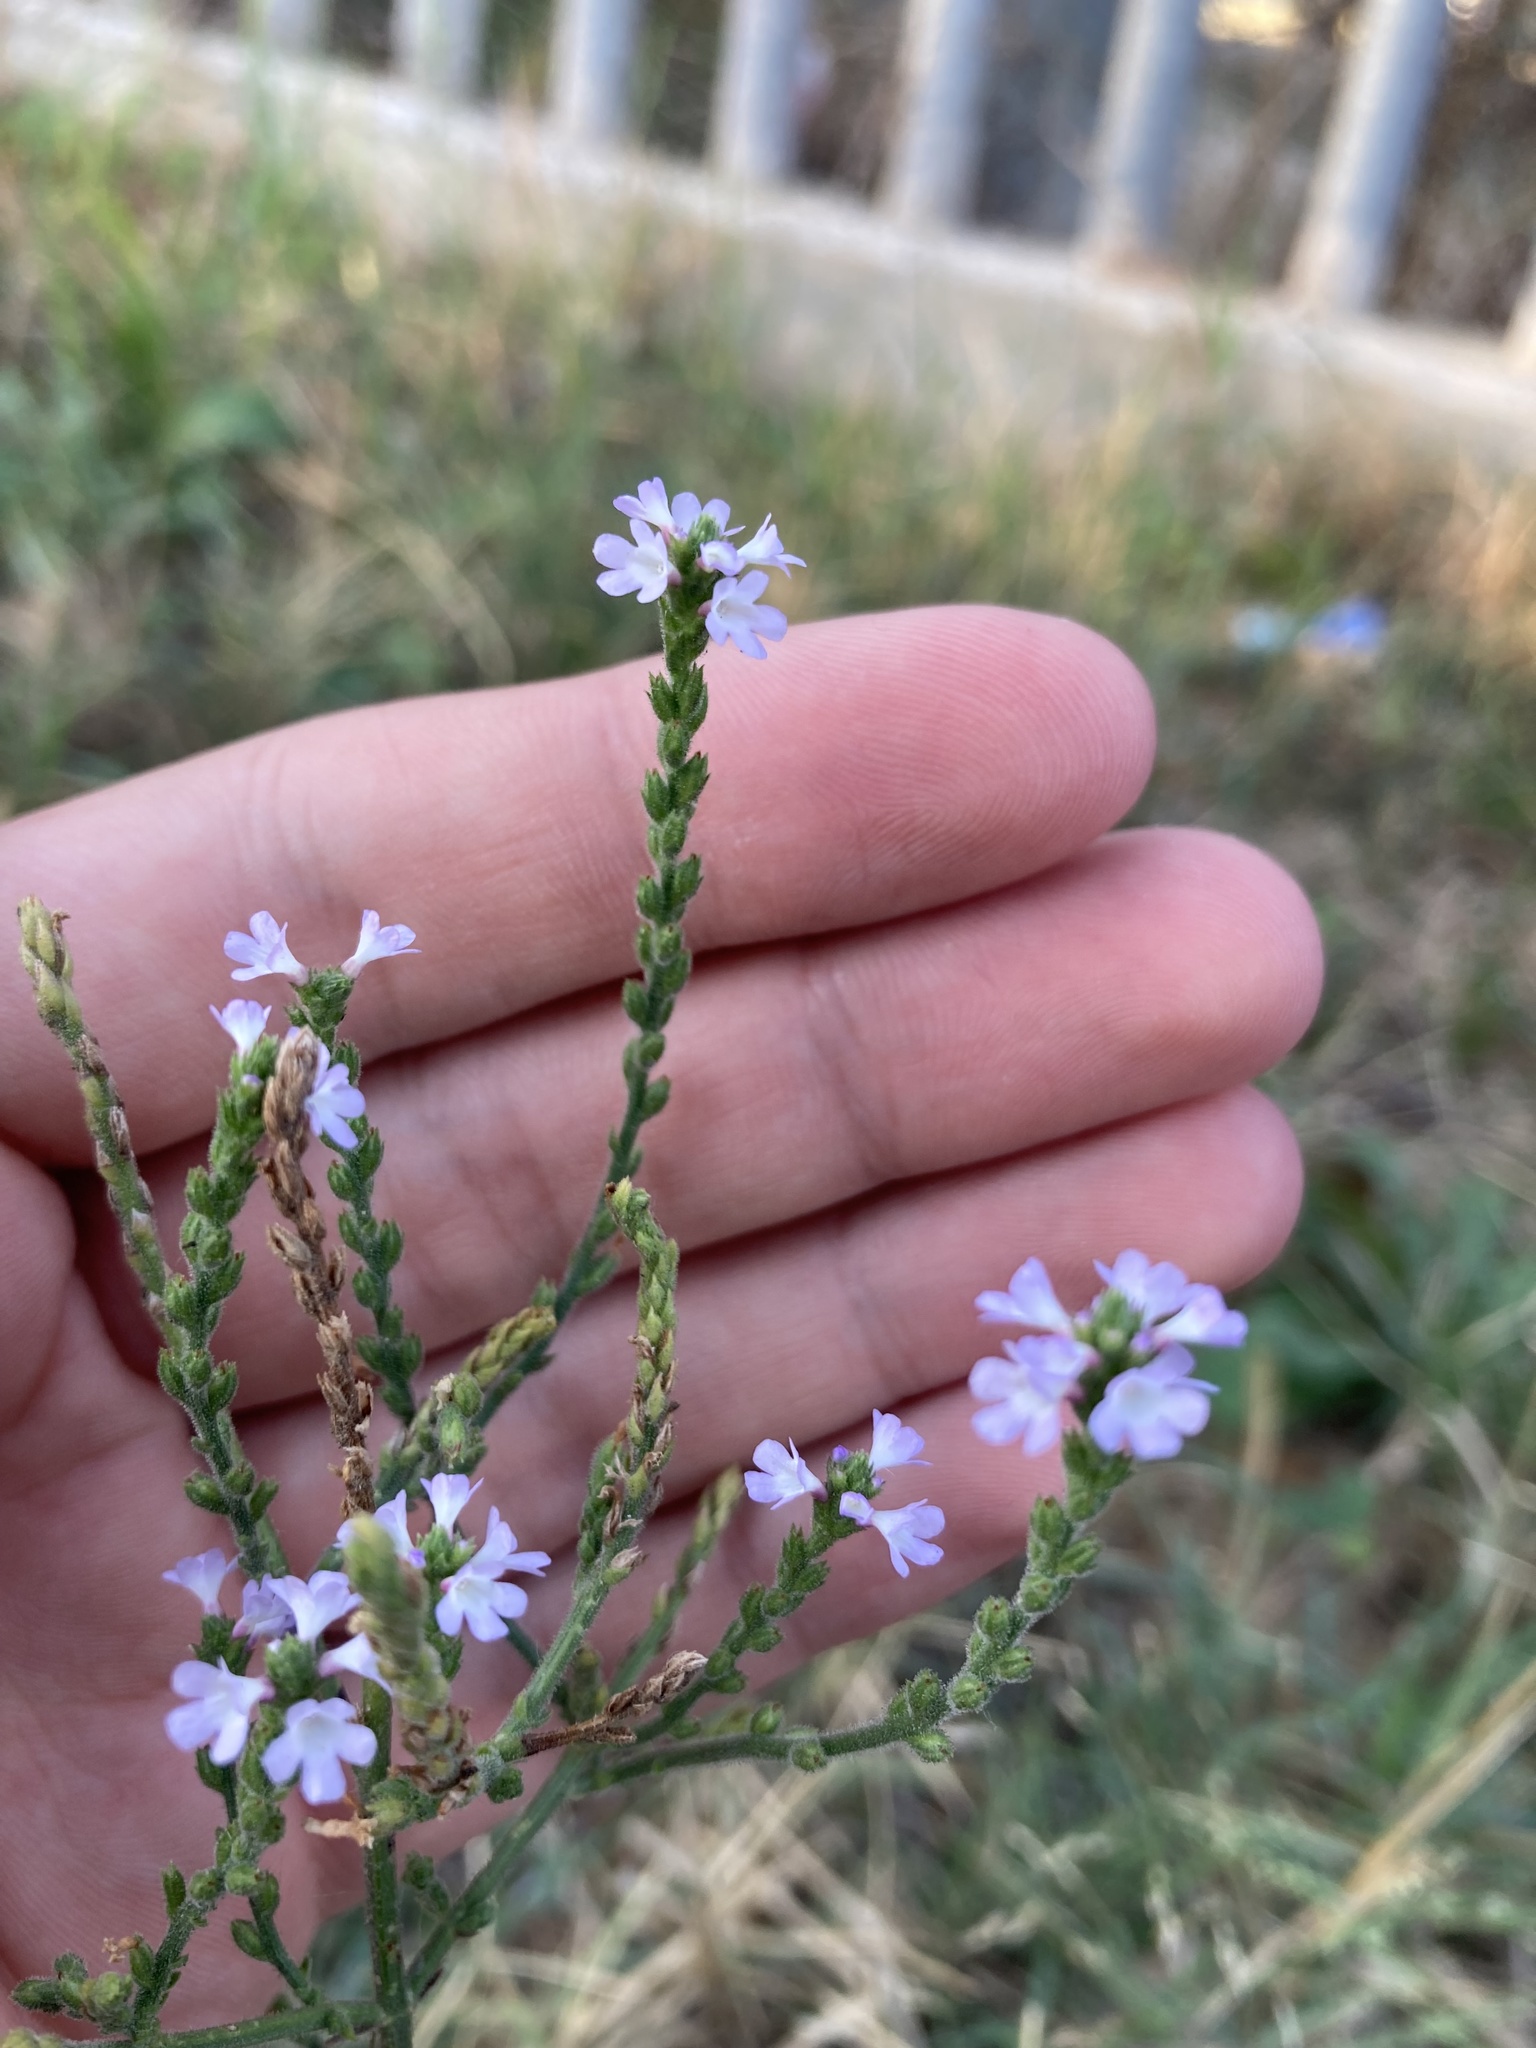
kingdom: Plantae
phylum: Tracheophyta
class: Magnoliopsida
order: Lamiales
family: Verbenaceae
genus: Verbena
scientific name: Verbena officinalis
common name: Vervain
